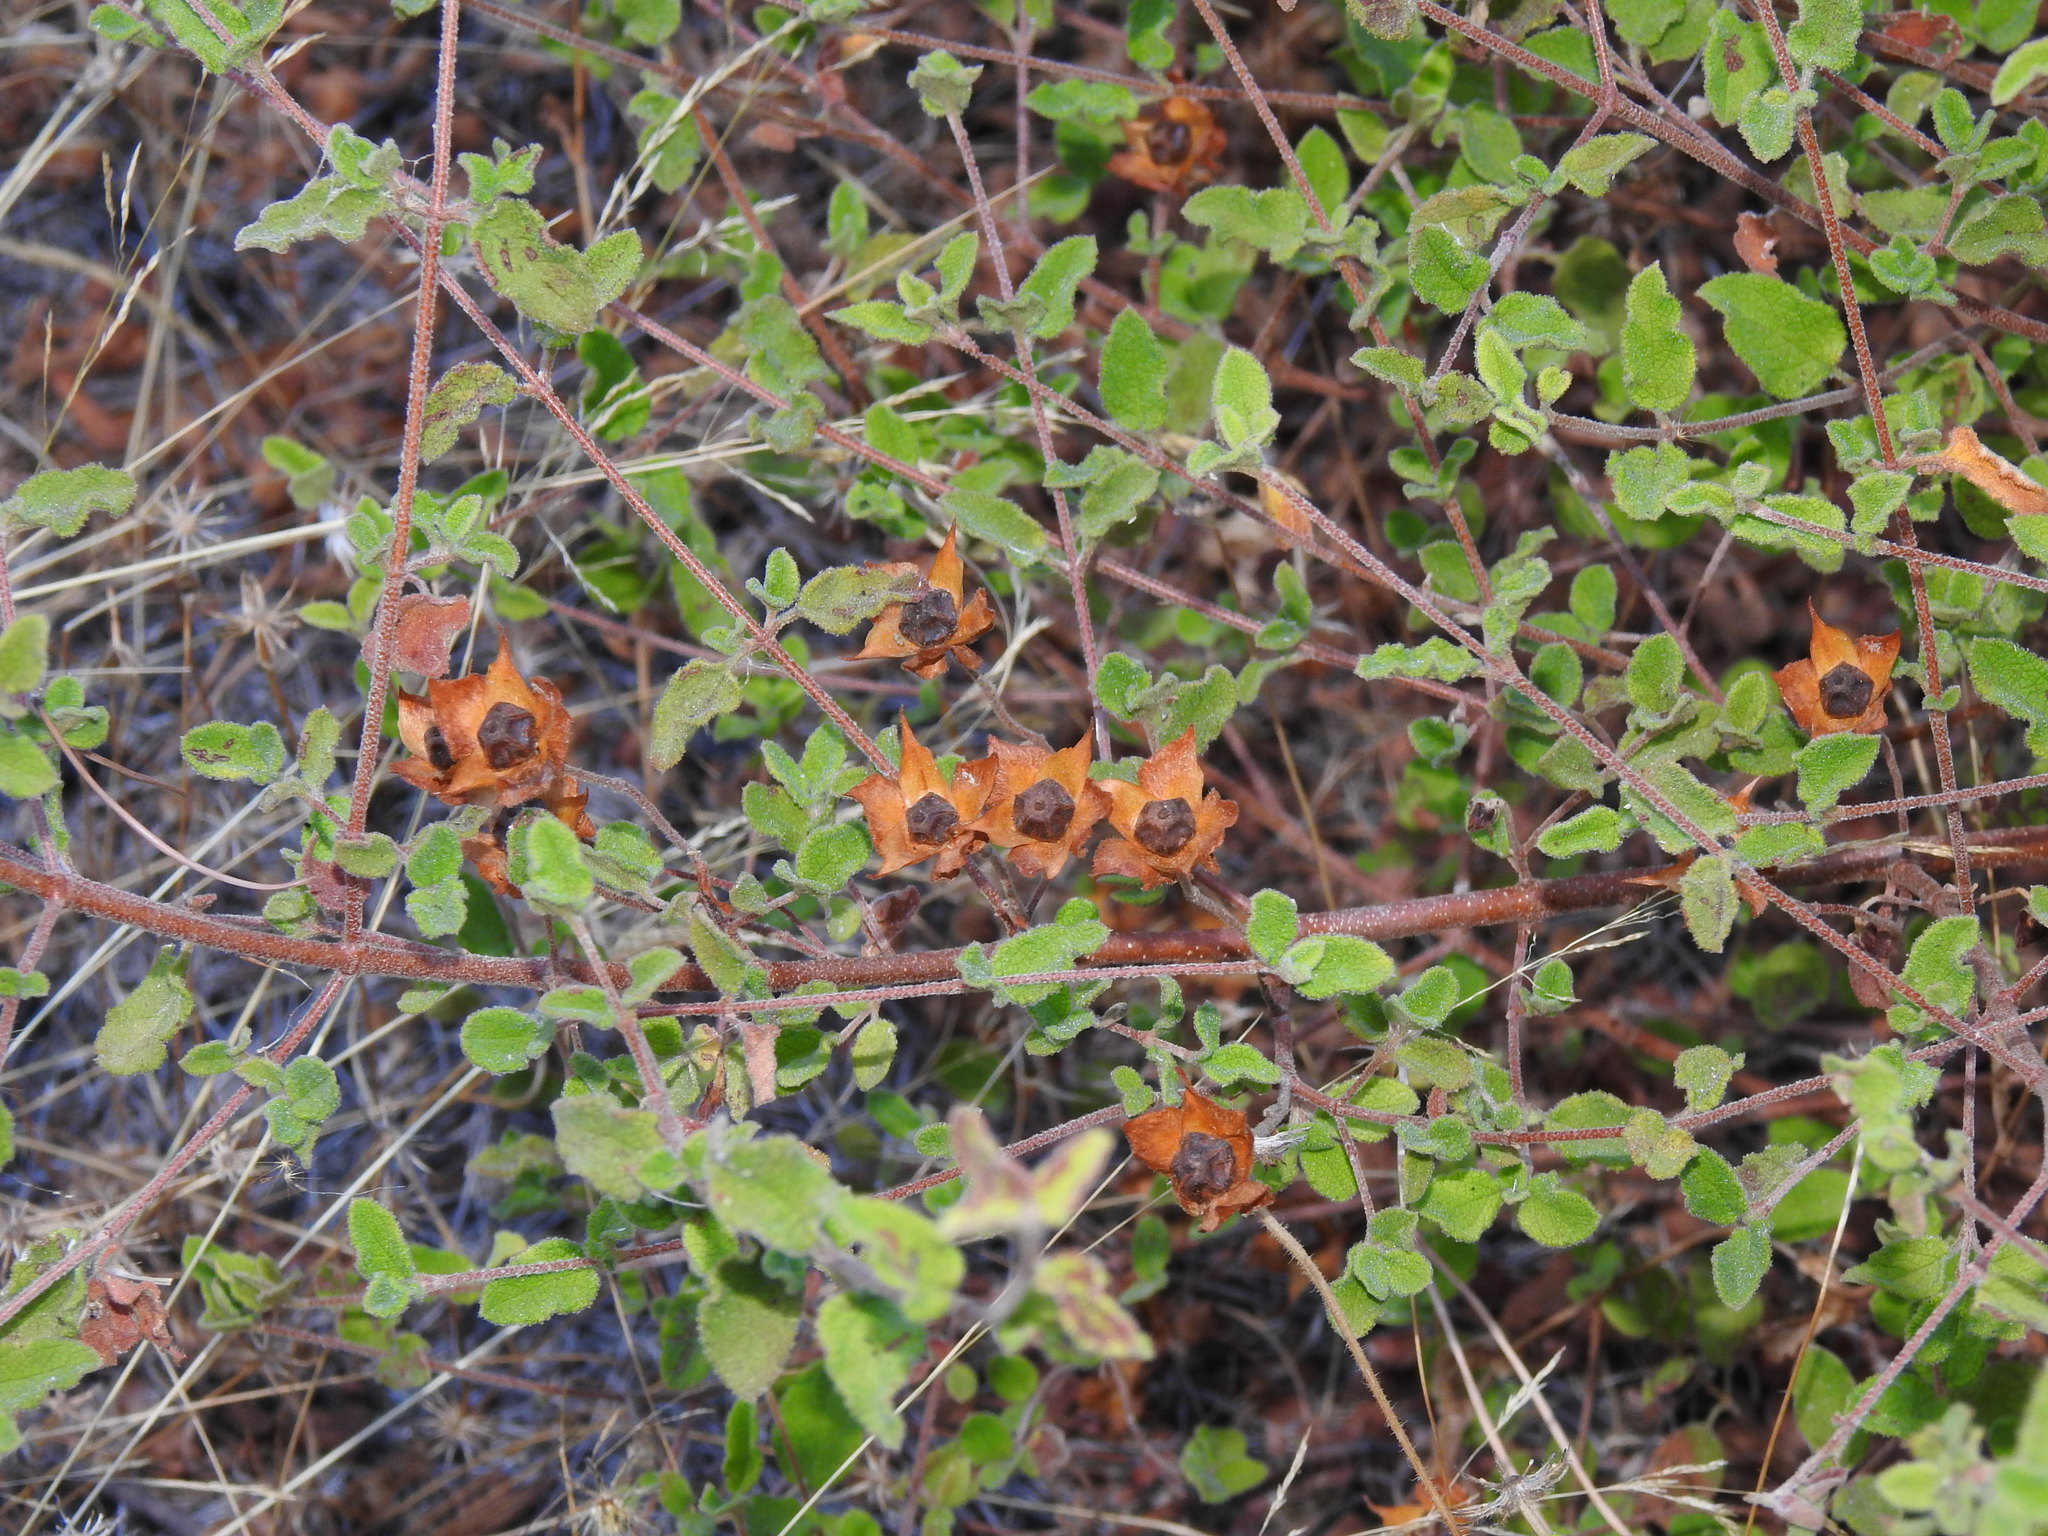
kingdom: Plantae
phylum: Tracheophyta
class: Magnoliopsida
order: Malvales
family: Cistaceae
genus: Cistus
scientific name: Cistus salviifolius
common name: Salvia cistus
